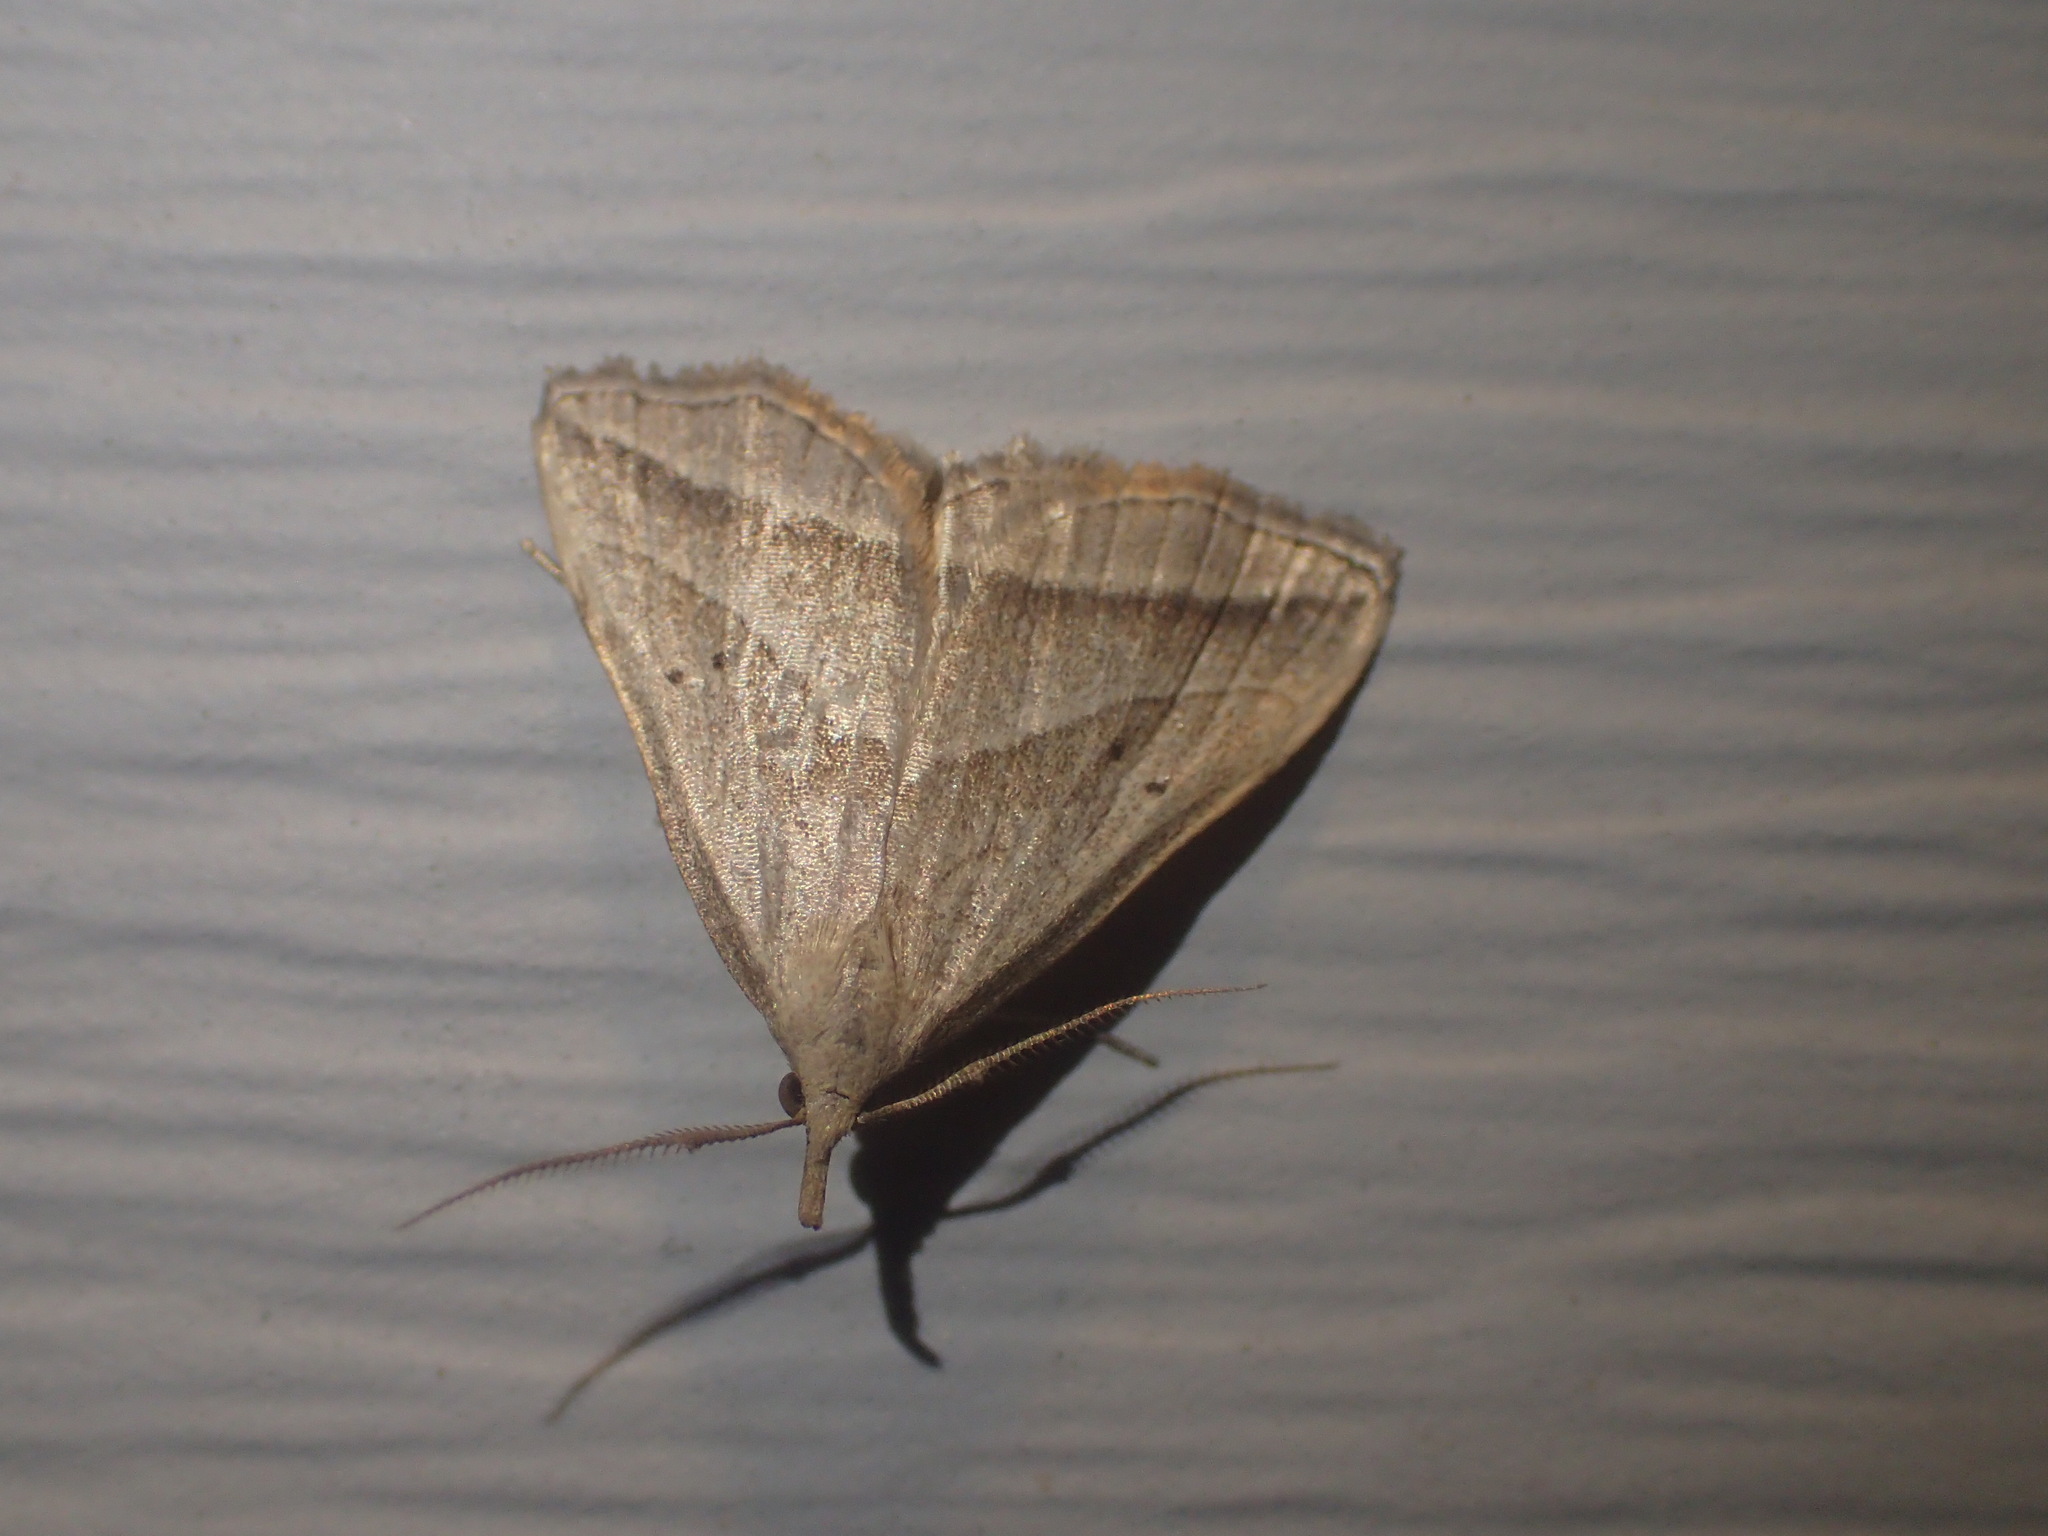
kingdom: Animalia
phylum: Arthropoda
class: Insecta
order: Lepidoptera
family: Erebidae
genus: Macrochilo
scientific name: Macrochilo absorptalis
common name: Slant-lined owlet
